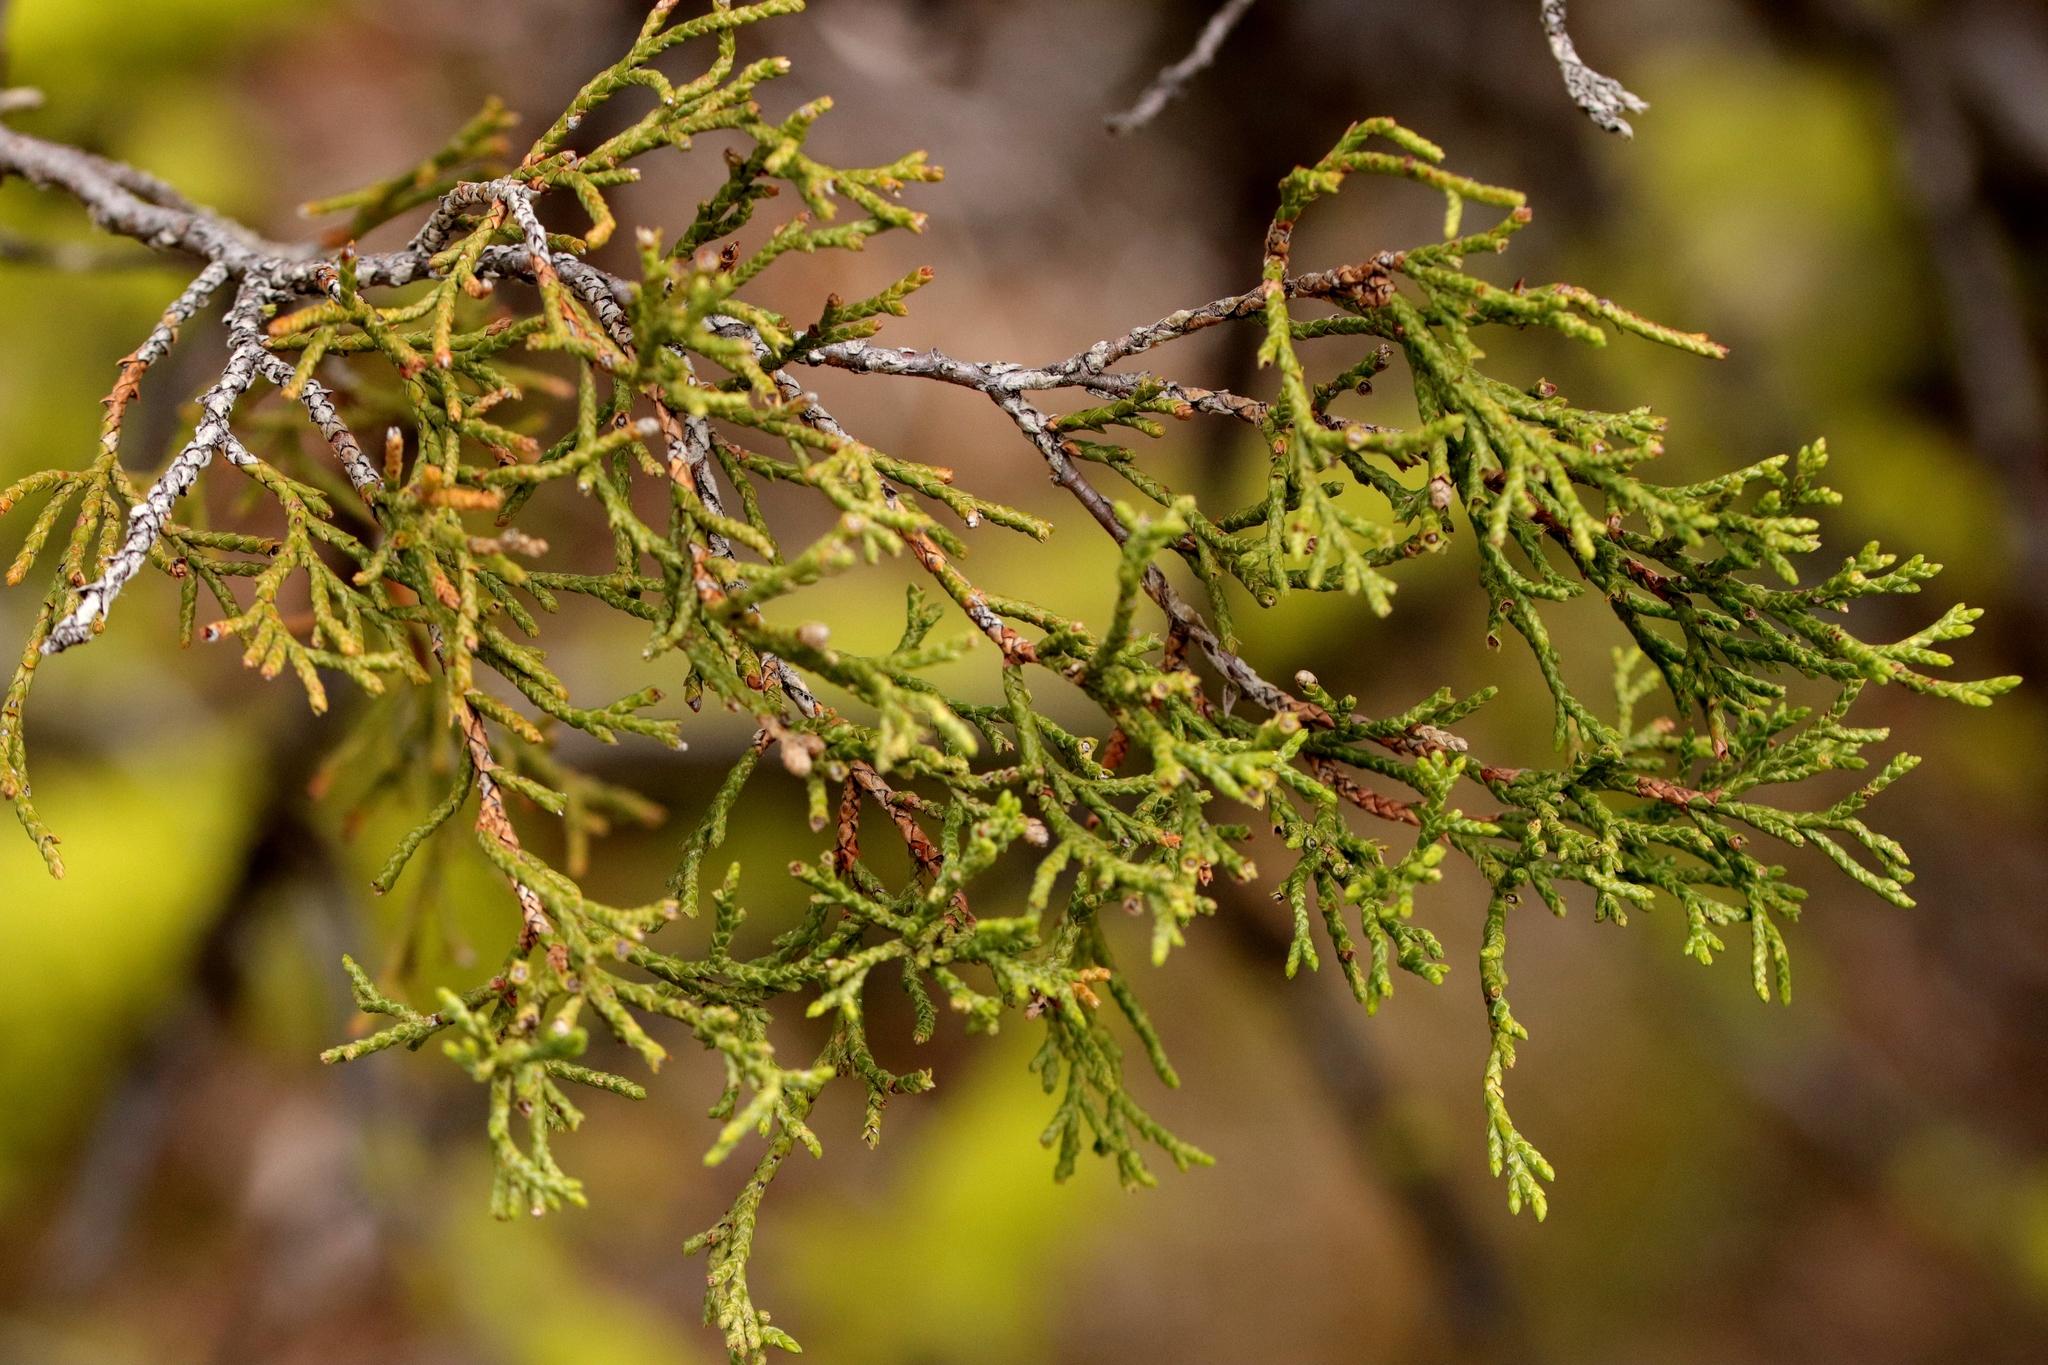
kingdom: Plantae
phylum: Tracheophyta
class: Pinopsida
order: Pinales
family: Cupressaceae
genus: Juniperus
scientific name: Juniperus scopulorum
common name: Rocky mountain juniper
